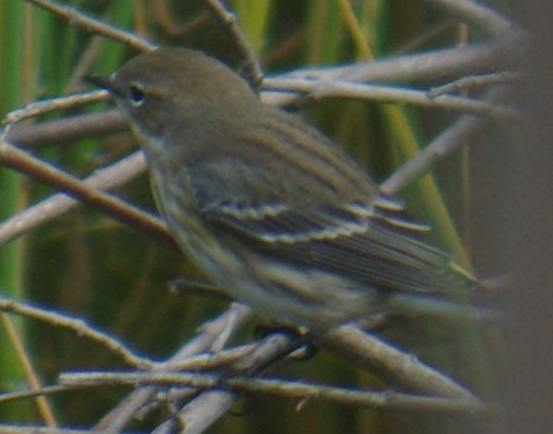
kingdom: Animalia
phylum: Chordata
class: Aves
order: Passeriformes
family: Parulidae
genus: Setophaga
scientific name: Setophaga coronata
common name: Myrtle warbler
